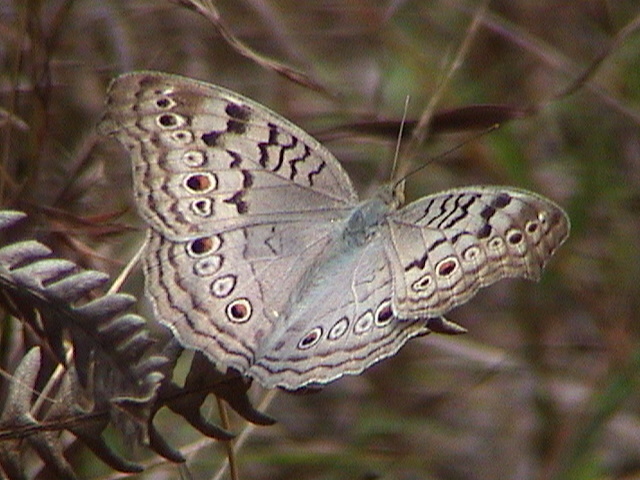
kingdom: Animalia
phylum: Arthropoda
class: Insecta
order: Lepidoptera
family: Nymphalidae
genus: Junonia
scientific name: Junonia atlites
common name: Grey pansy
